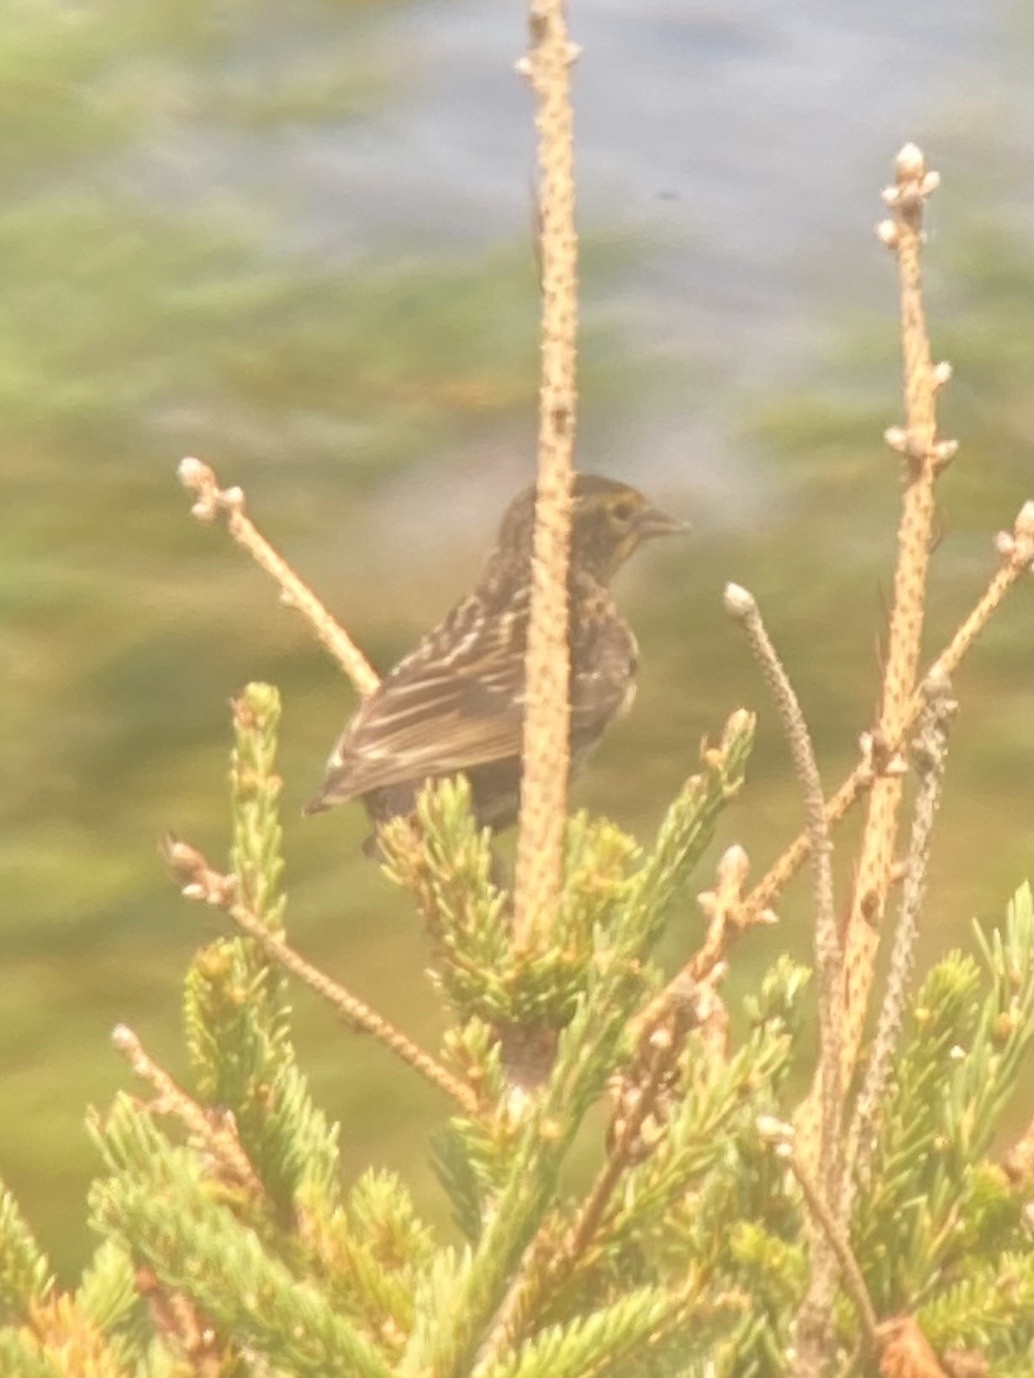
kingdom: Animalia
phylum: Chordata
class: Aves
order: Passeriformes
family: Icteridae
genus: Agelaius
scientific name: Agelaius phoeniceus
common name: Red-winged blackbird
